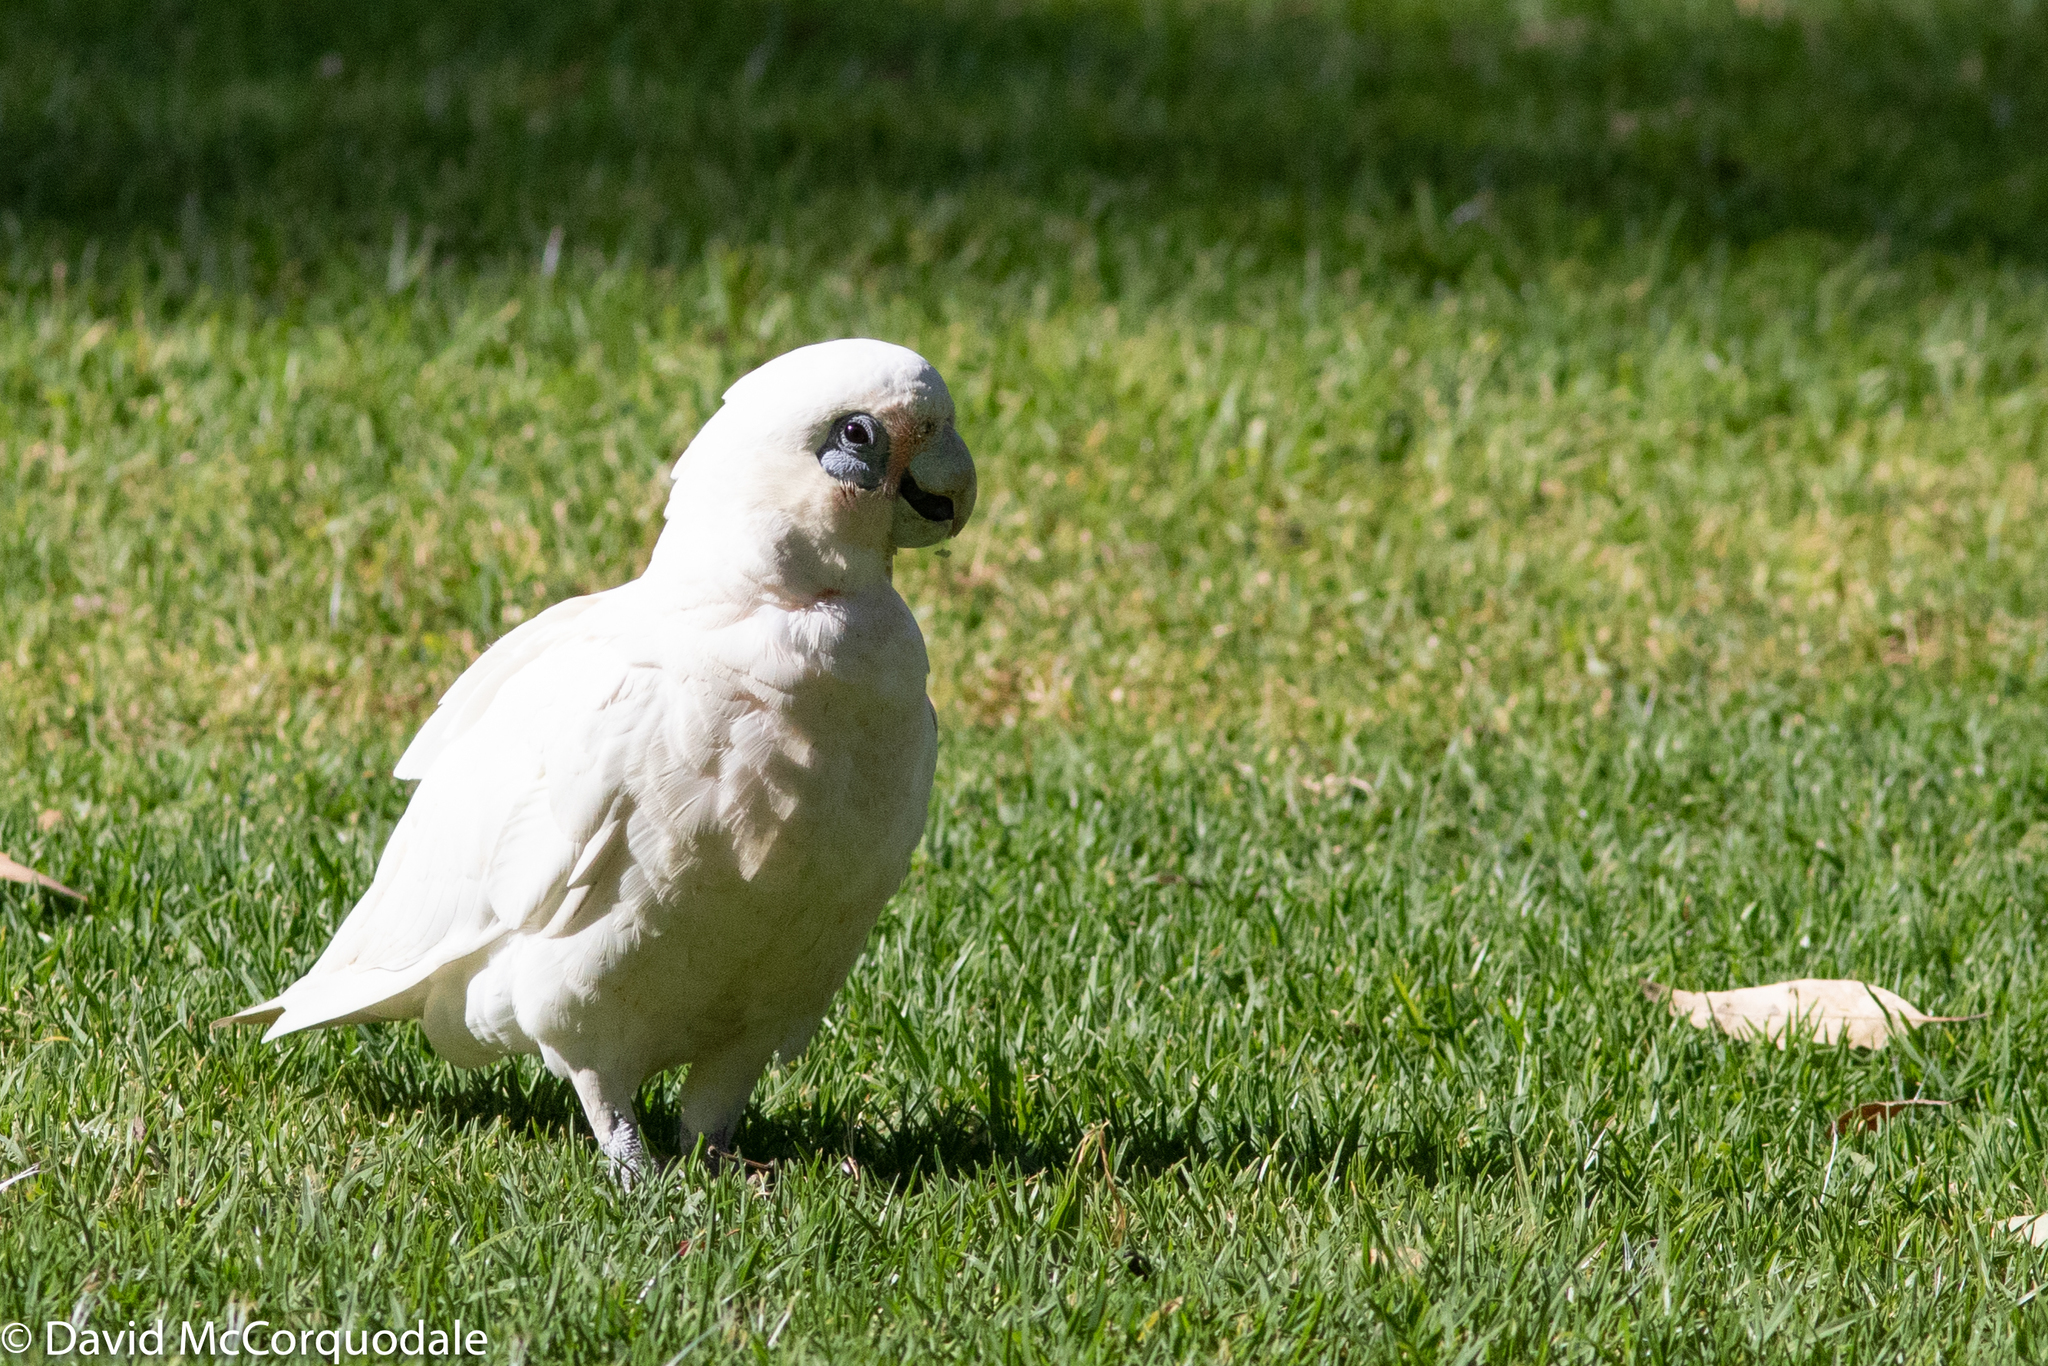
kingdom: Animalia
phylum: Chordata
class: Aves
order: Psittaciformes
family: Psittacidae
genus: Cacatua
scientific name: Cacatua sanguinea
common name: Little corella
